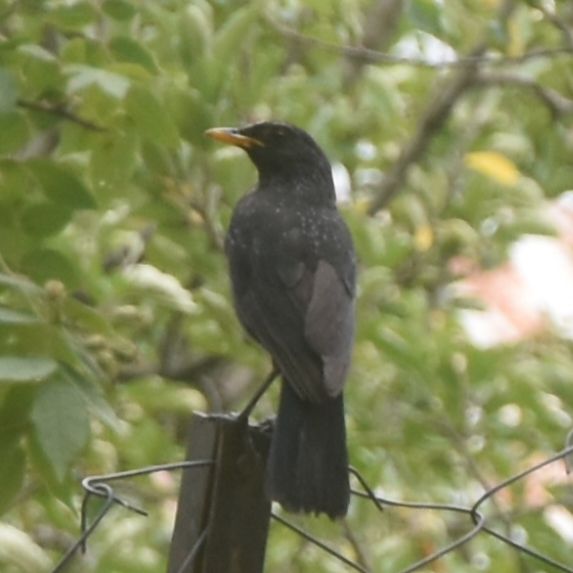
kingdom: Animalia
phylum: Chordata
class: Aves
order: Passeriformes
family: Muscicapidae
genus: Myophonus
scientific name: Myophonus caeruleus
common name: Blue whistling-thrush
